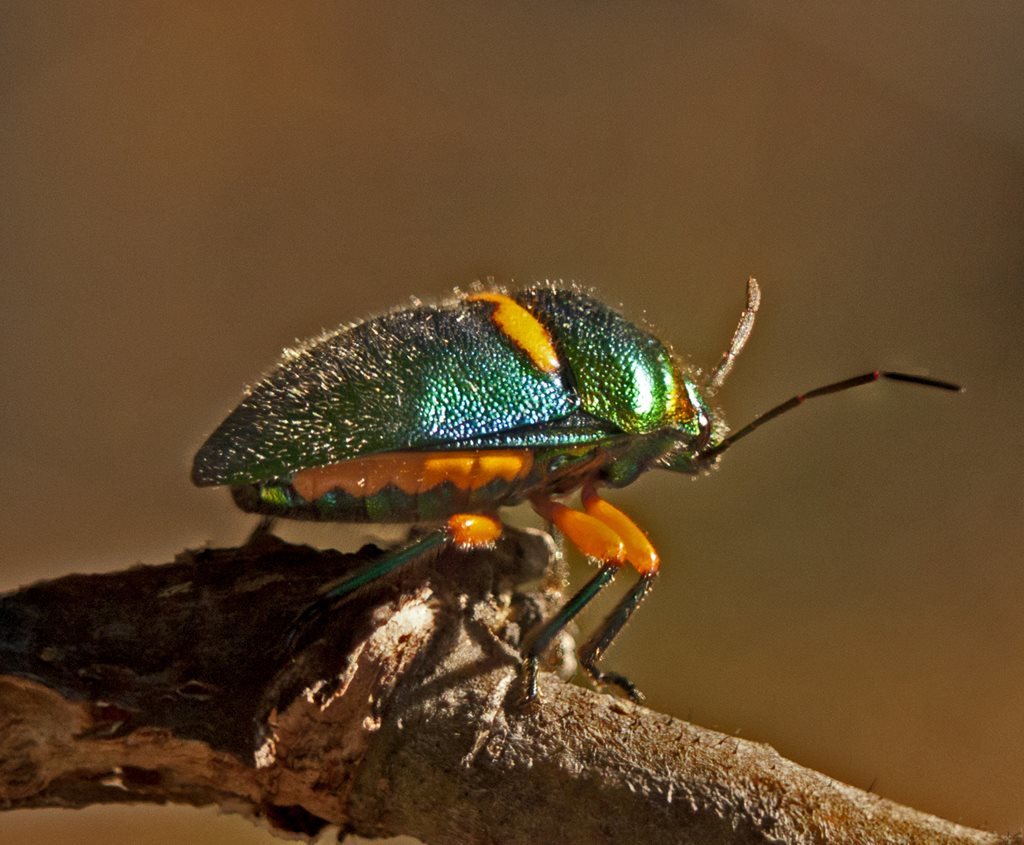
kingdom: Animalia
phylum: Arthropoda
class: Insecta
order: Hemiptera
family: Scutelleridae
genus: Lampromicra
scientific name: Lampromicra senator
